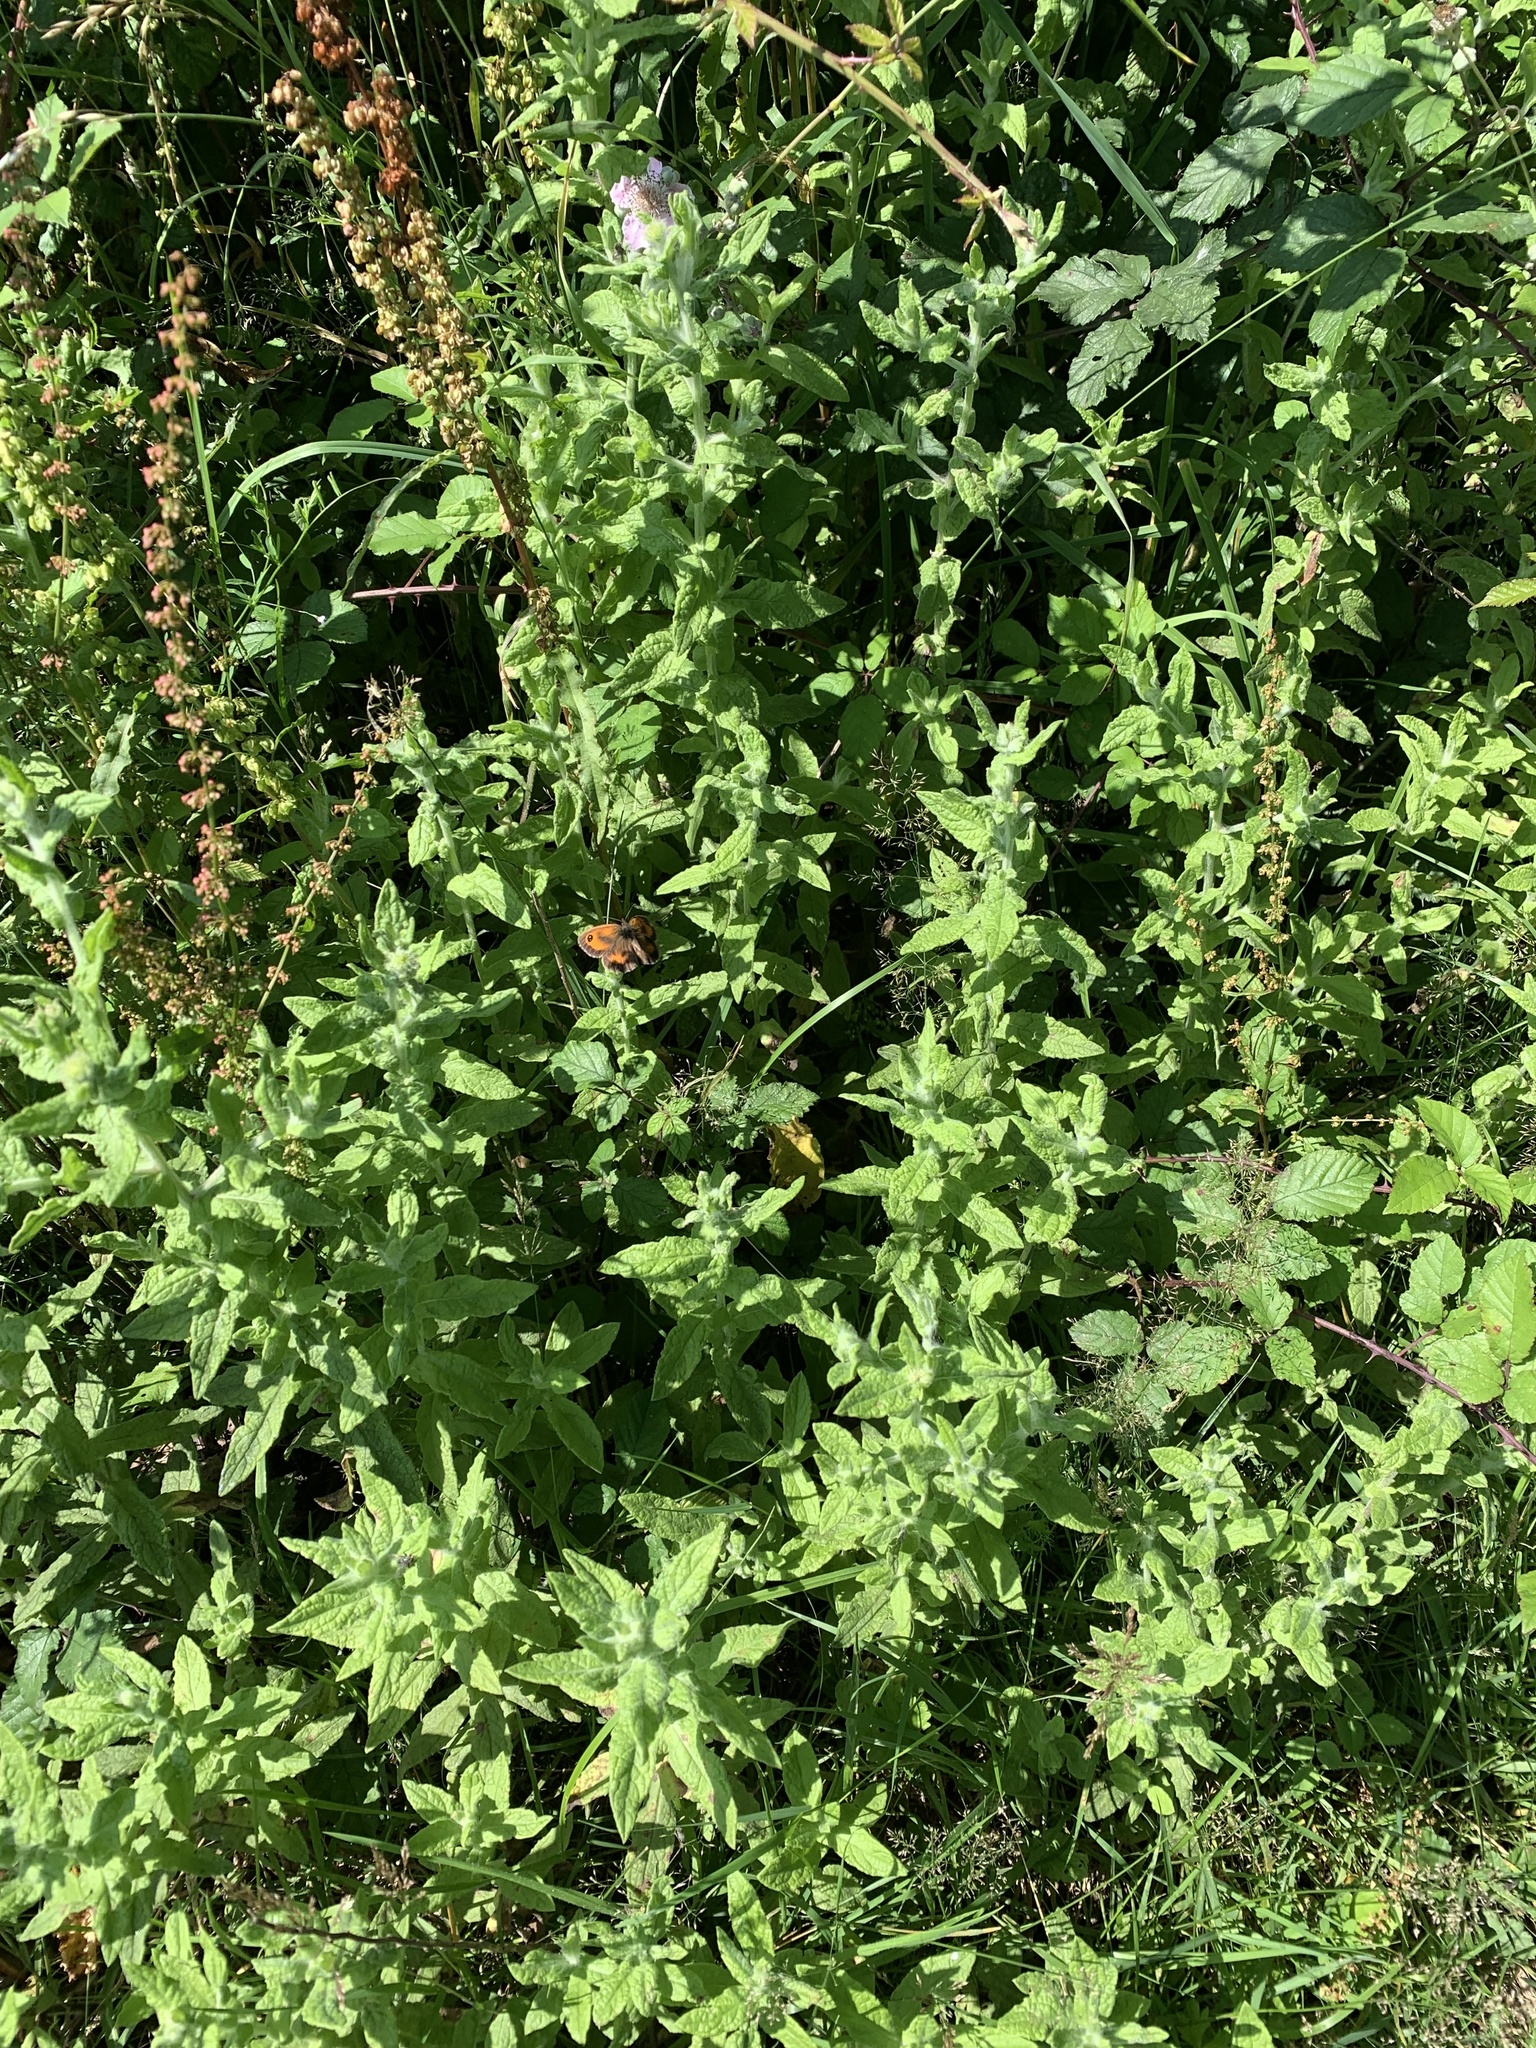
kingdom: Animalia
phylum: Arthropoda
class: Insecta
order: Lepidoptera
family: Nymphalidae
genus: Pyronia
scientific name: Pyronia tithonus
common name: Gatekeeper
